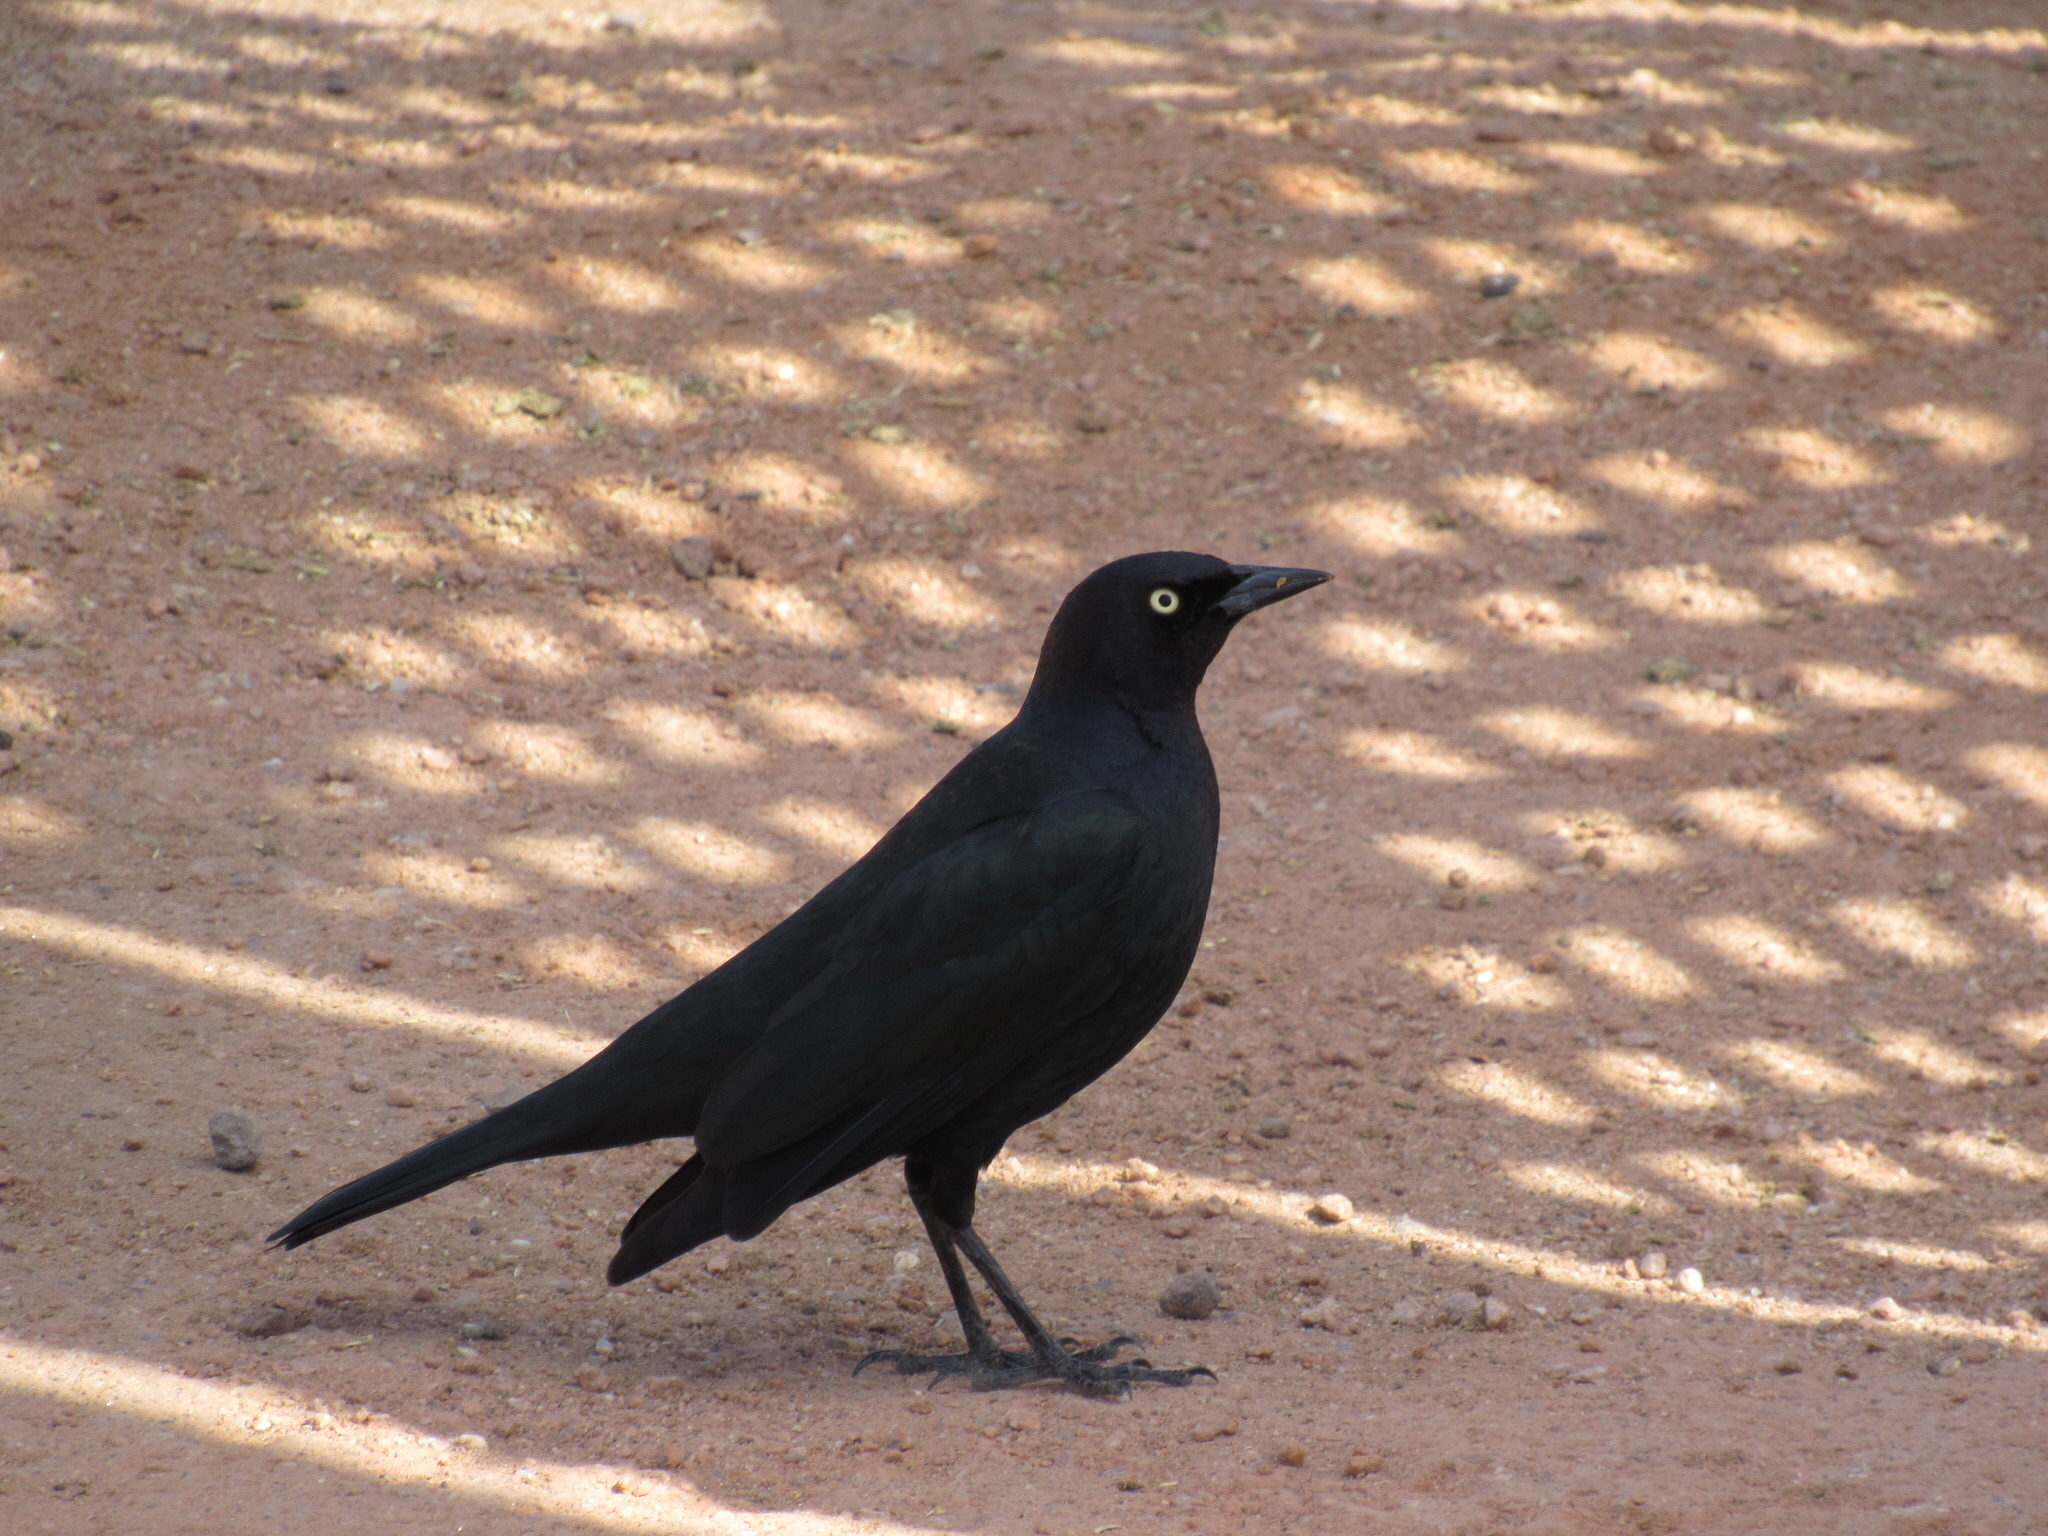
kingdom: Animalia
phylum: Chordata
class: Aves
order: Passeriformes
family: Icteridae
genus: Euphagus
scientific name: Euphagus cyanocephalus
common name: Brewer's blackbird
